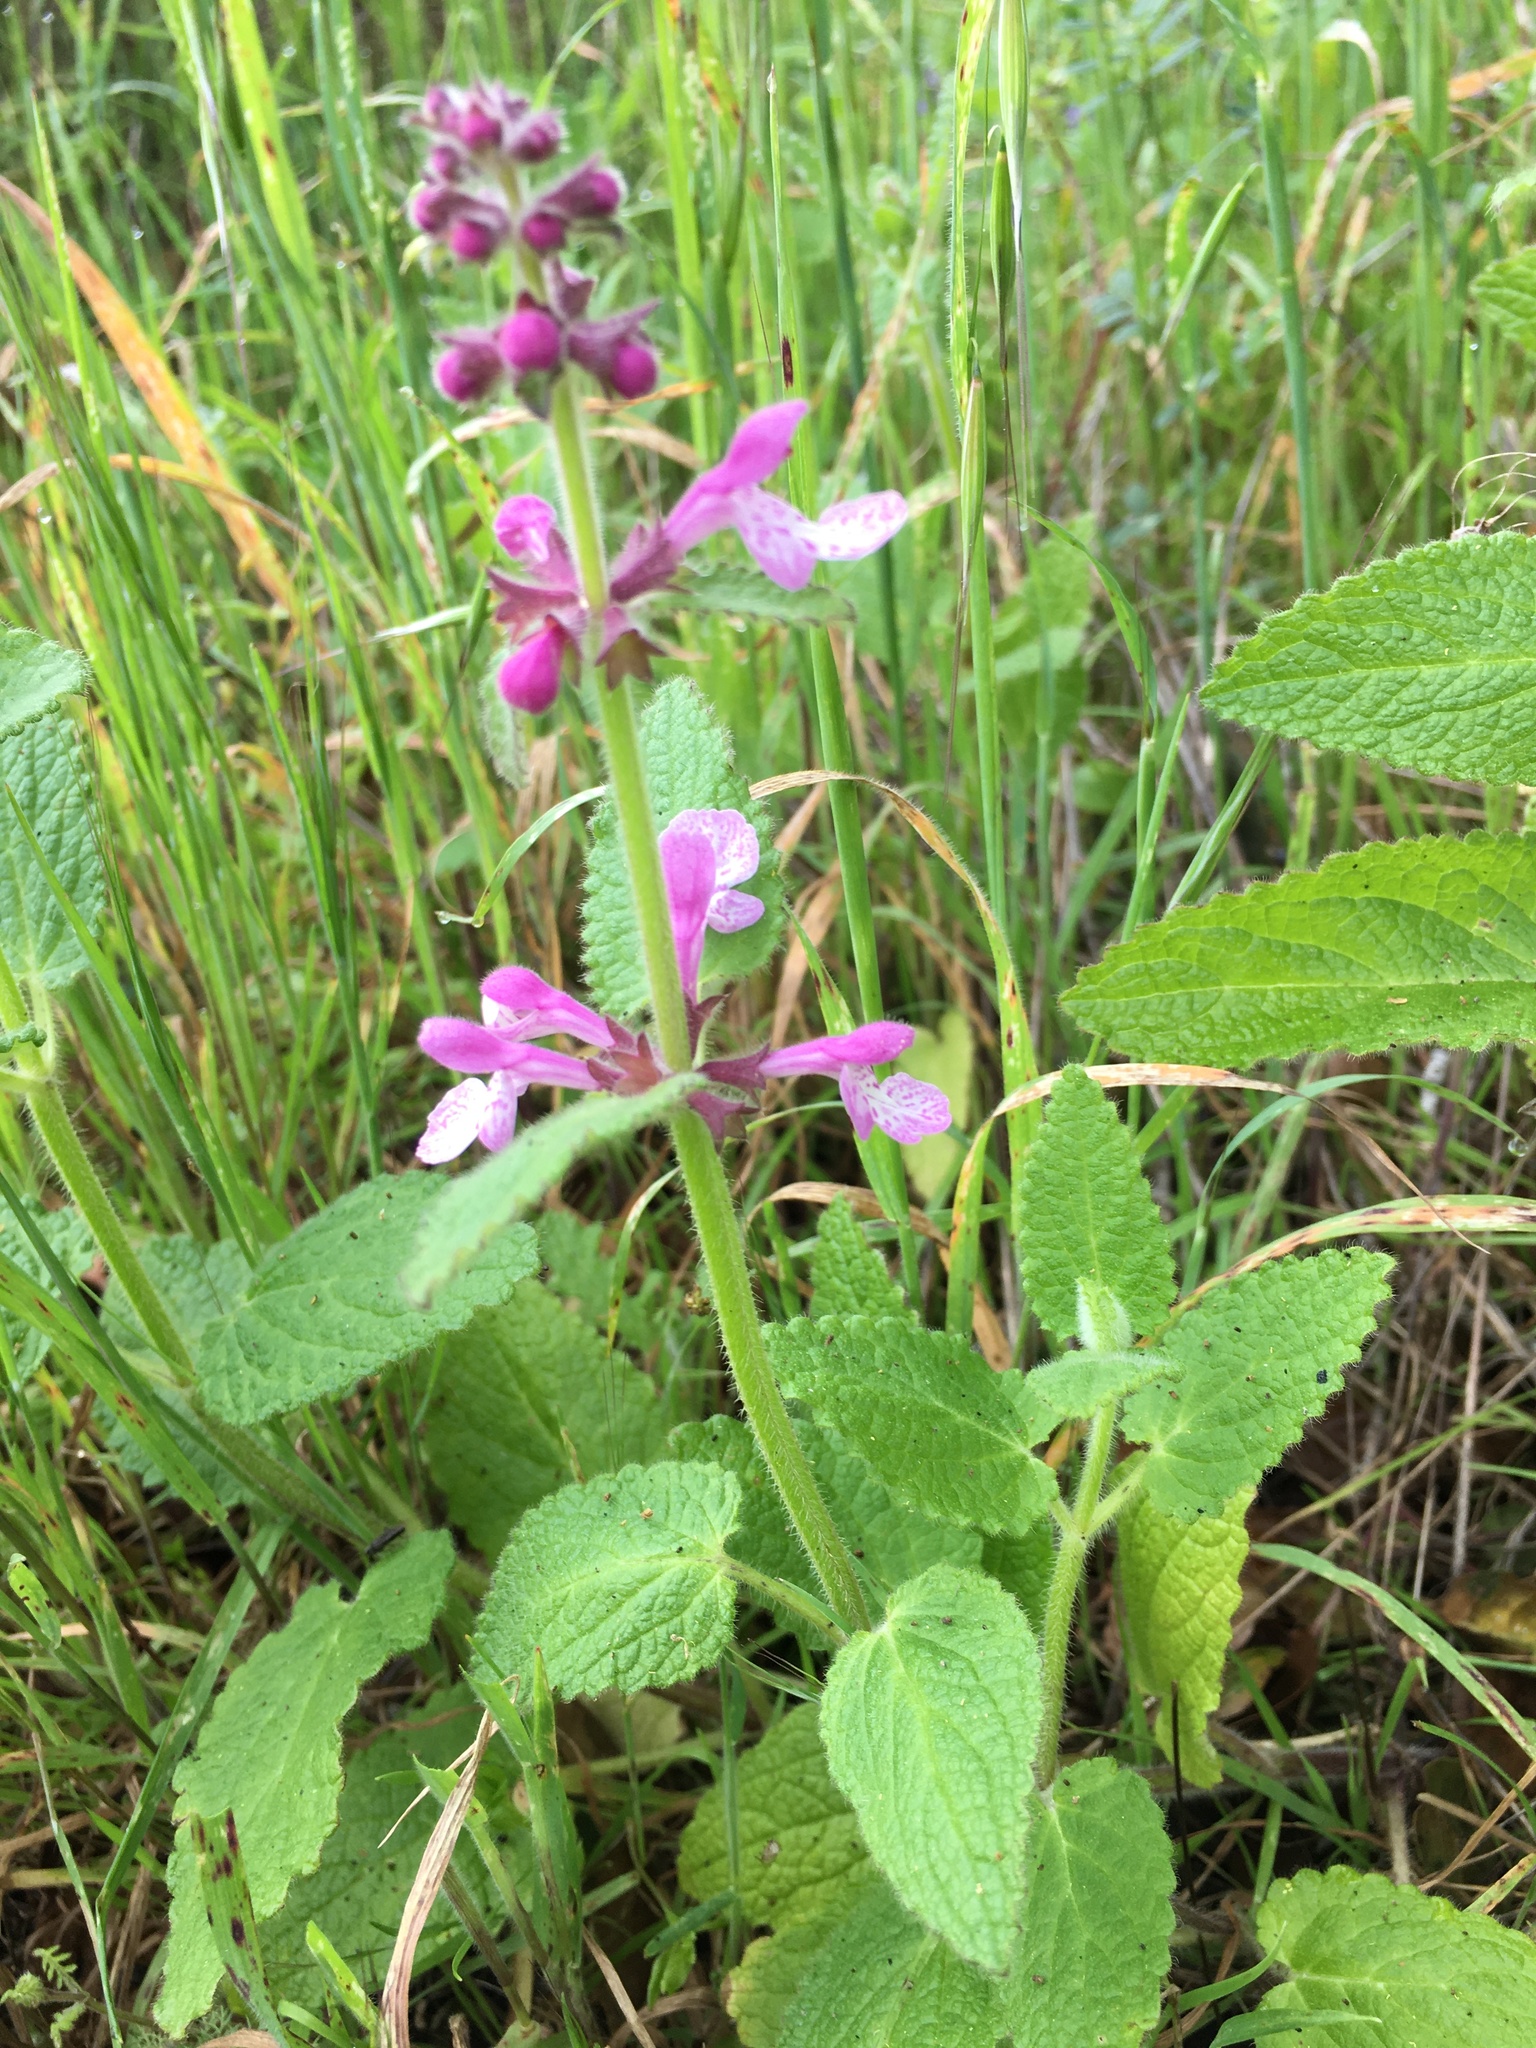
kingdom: Plantae
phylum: Tracheophyta
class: Magnoliopsida
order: Lamiales
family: Lamiaceae
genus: Stachys
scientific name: Stachys bullata
